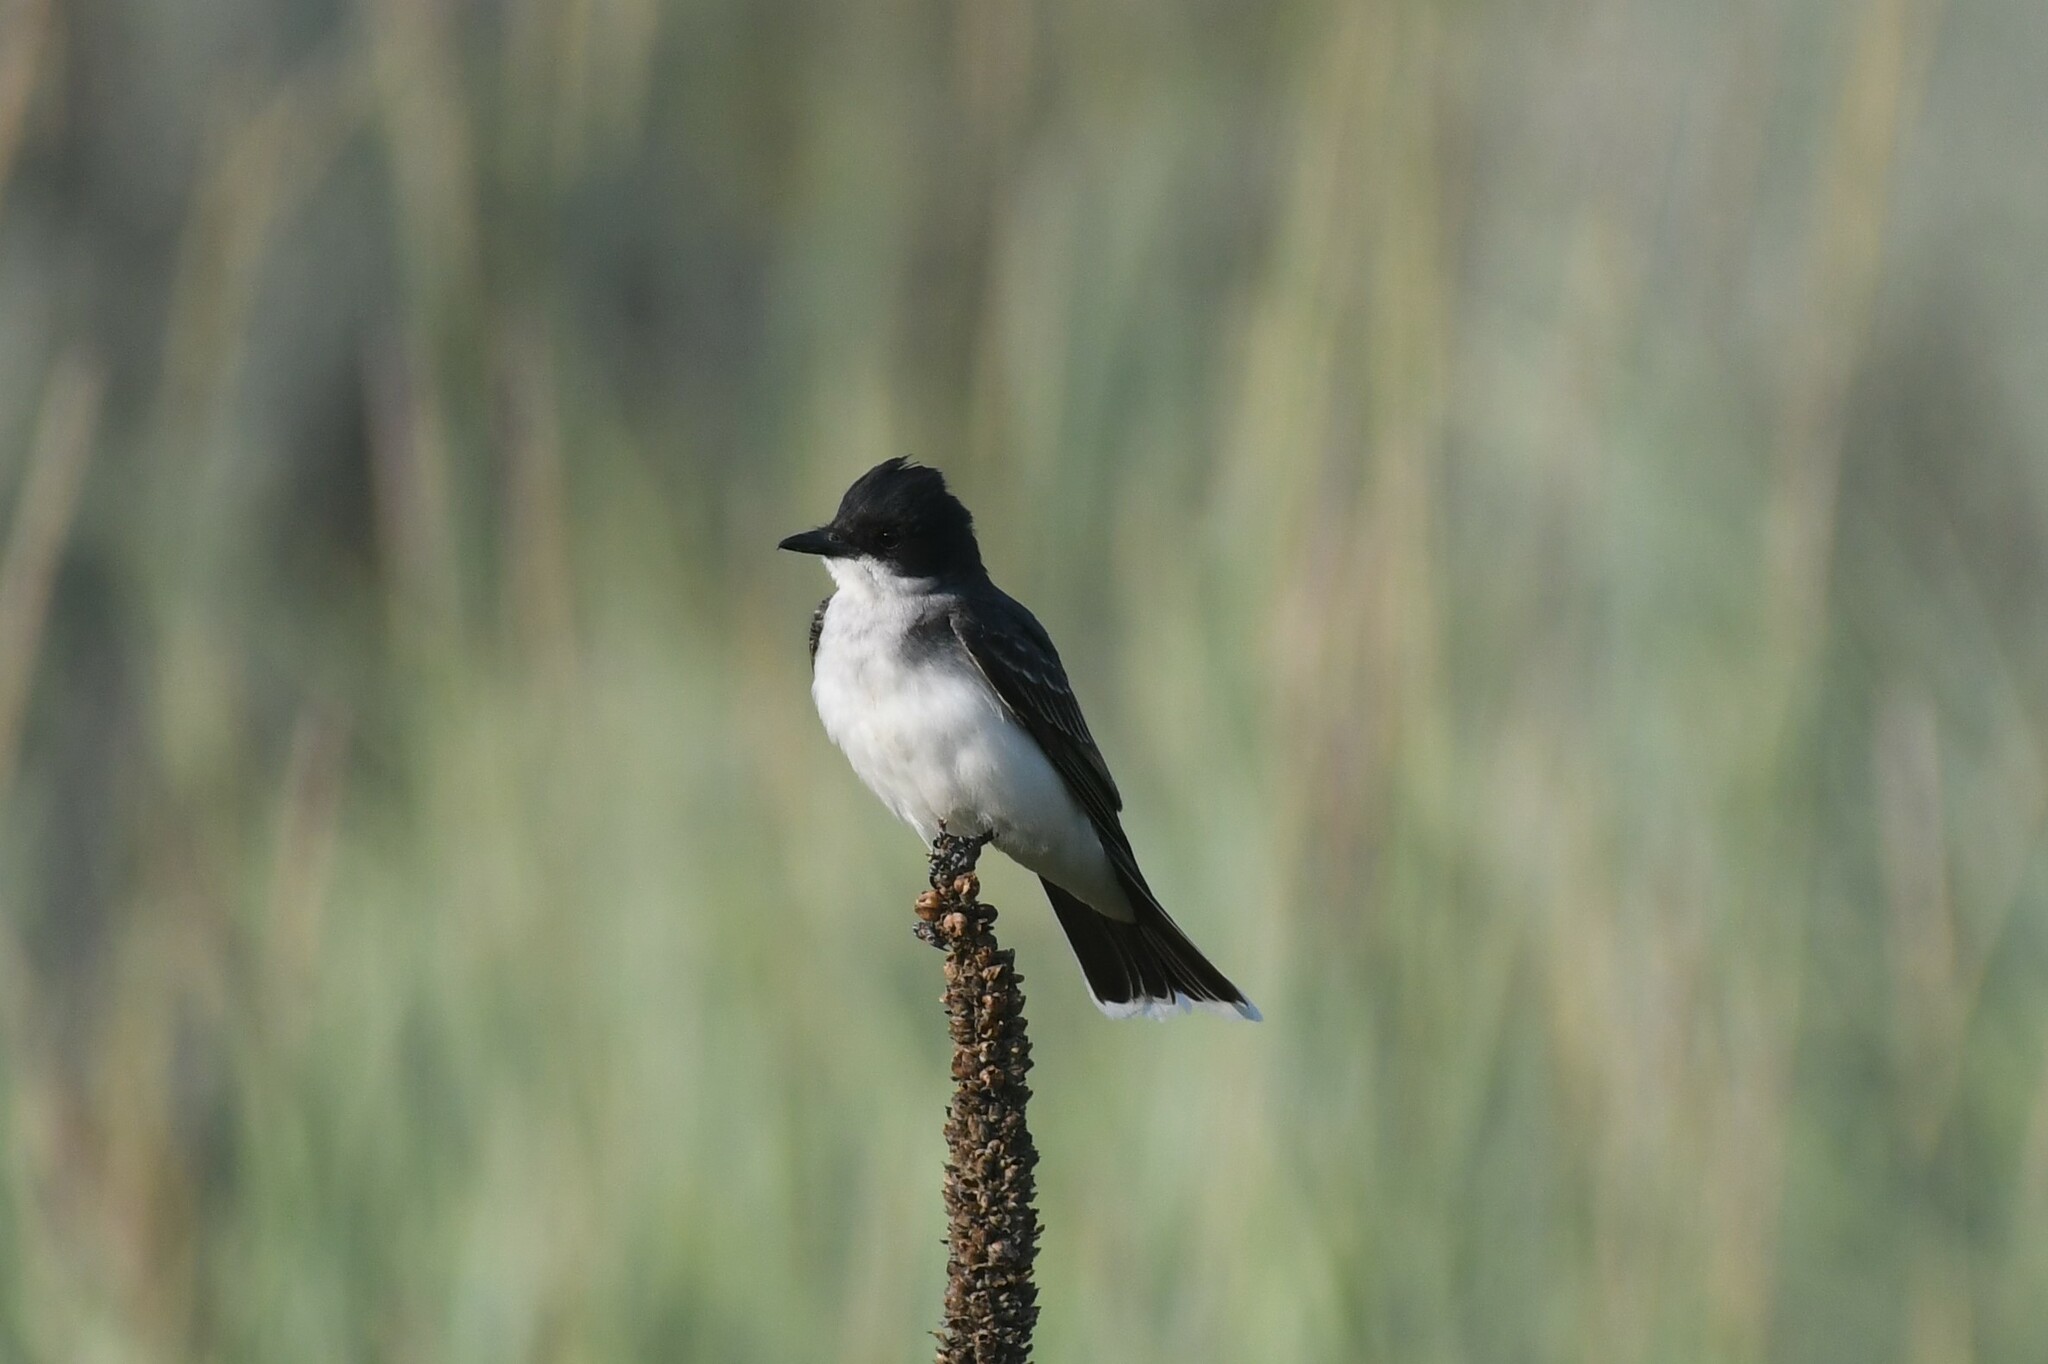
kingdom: Animalia
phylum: Chordata
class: Aves
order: Passeriformes
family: Tyrannidae
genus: Tyrannus
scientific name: Tyrannus tyrannus
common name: Eastern kingbird
